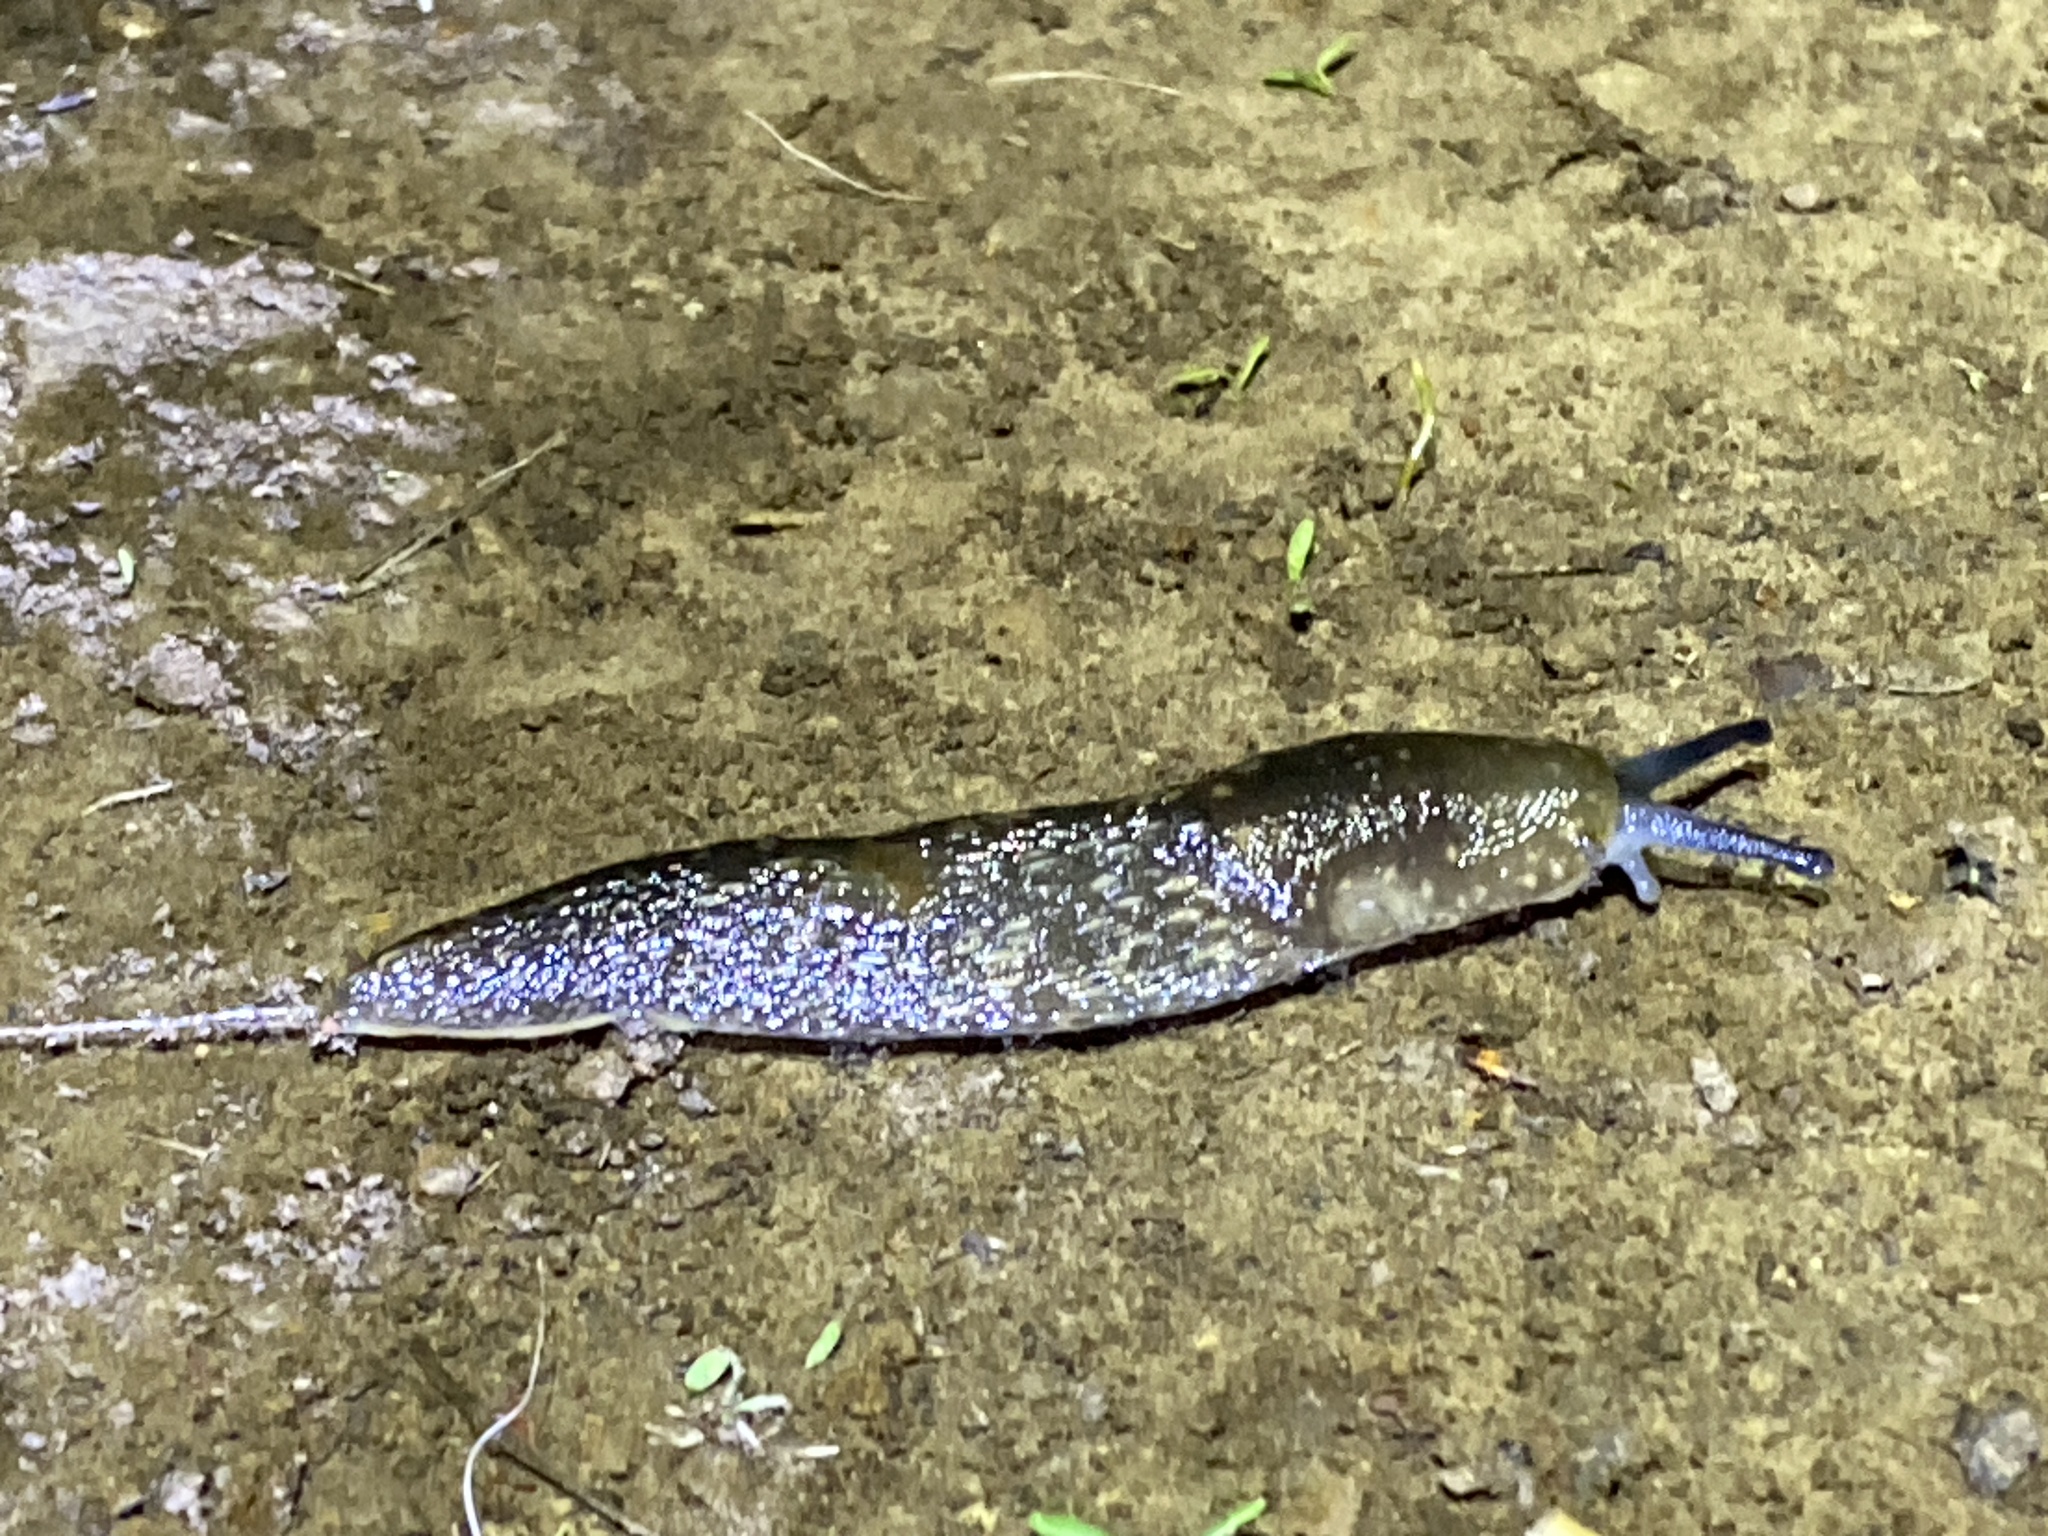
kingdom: Animalia
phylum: Mollusca
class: Gastropoda
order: Stylommatophora
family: Limacidae
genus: Limacus
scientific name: Limacus flavus
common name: Yellow gardenslug
